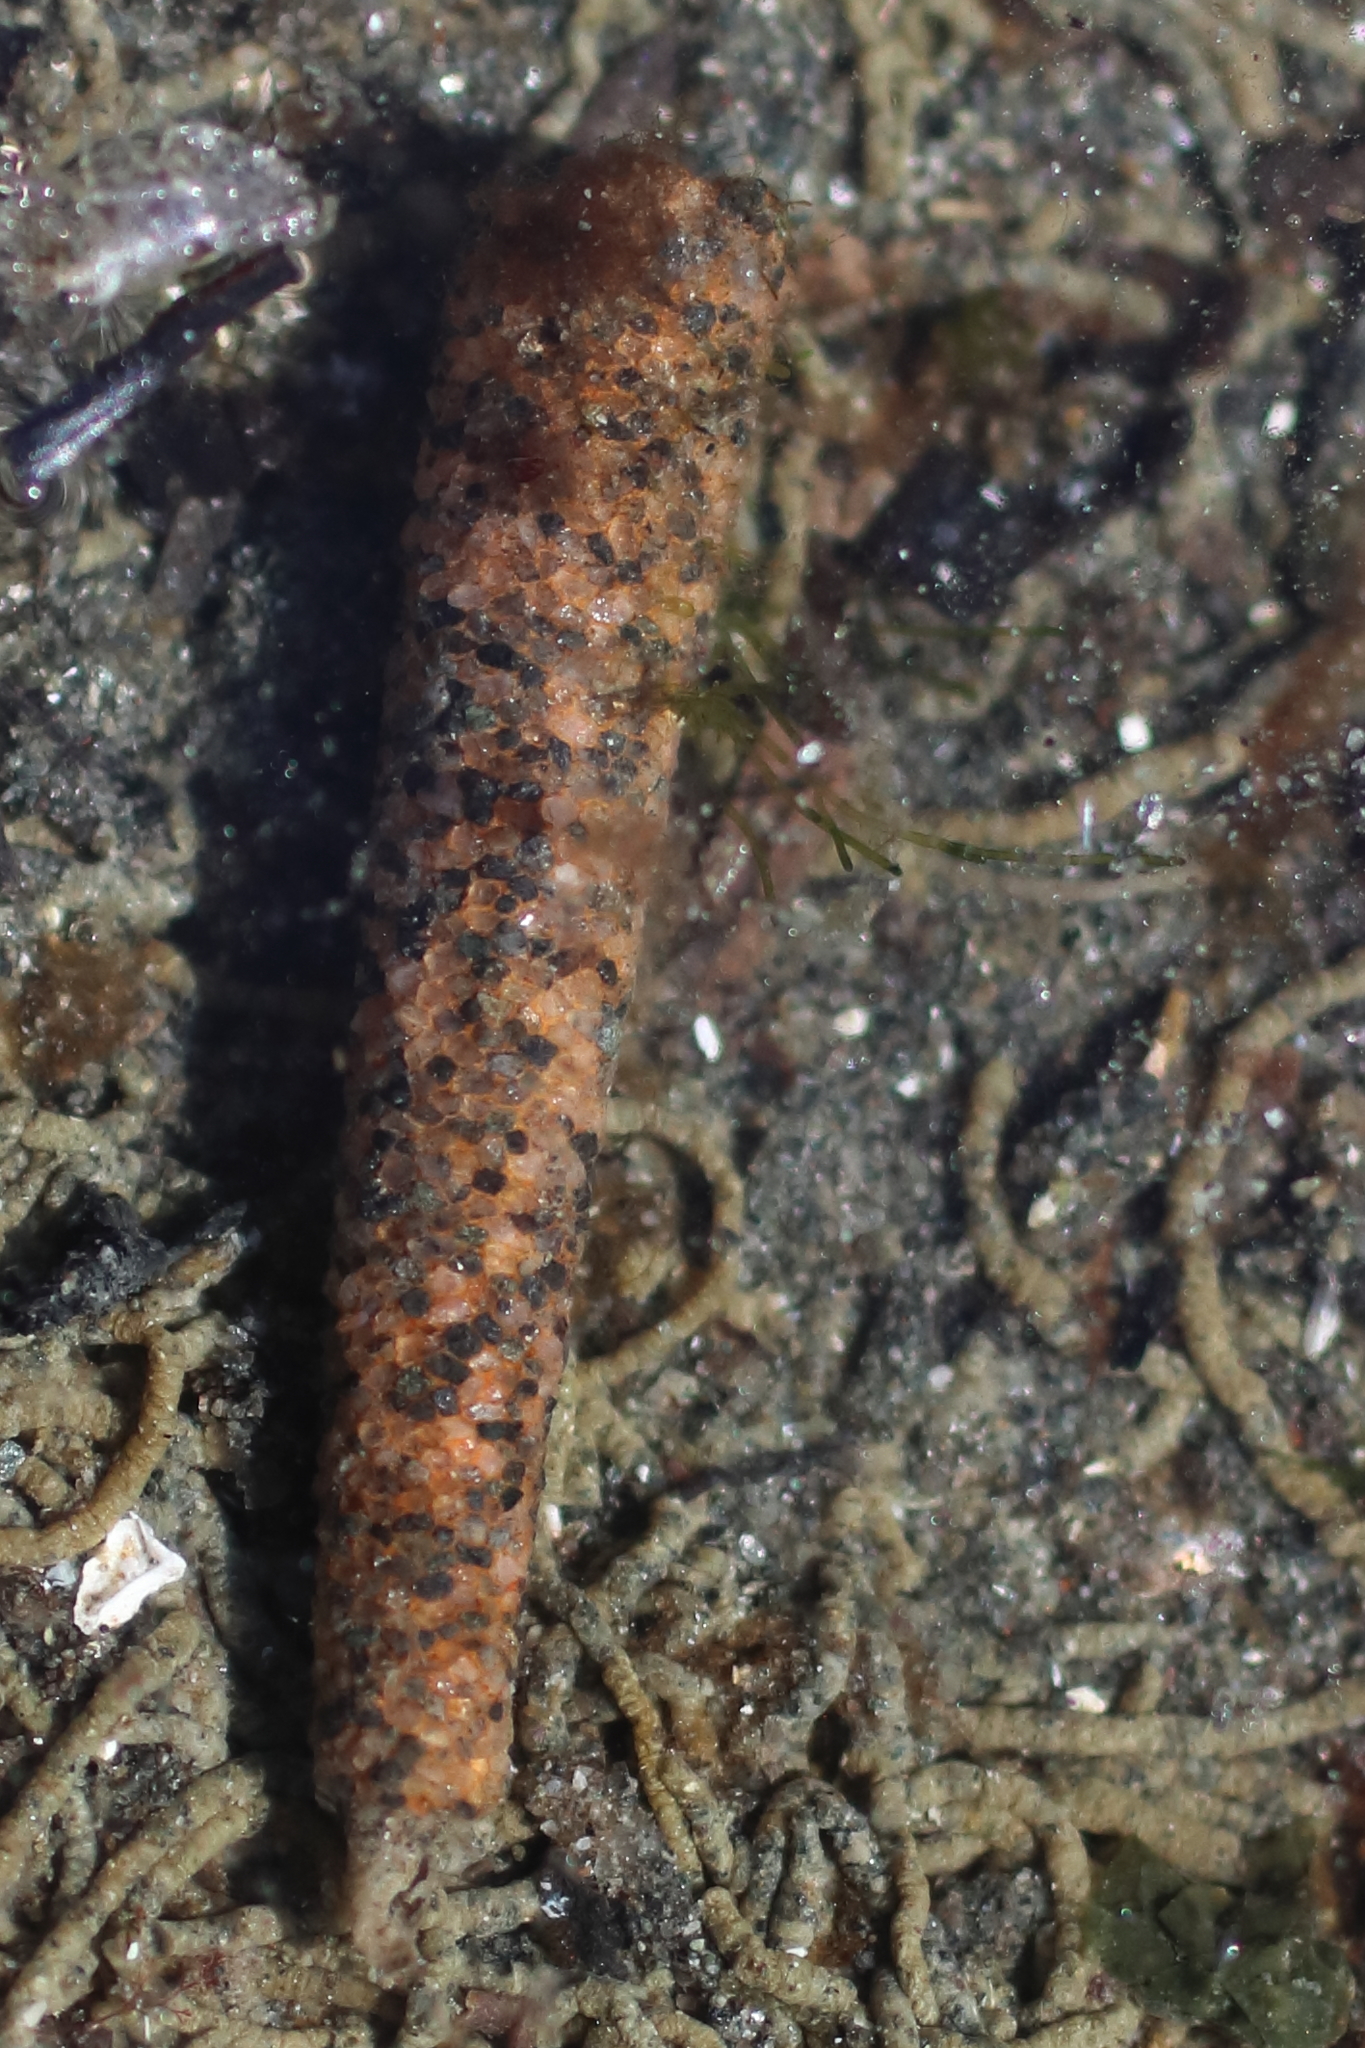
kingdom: Animalia
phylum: Annelida
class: Polychaeta
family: Pectinariidae
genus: Cistenides
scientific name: Cistenides brevicoma
